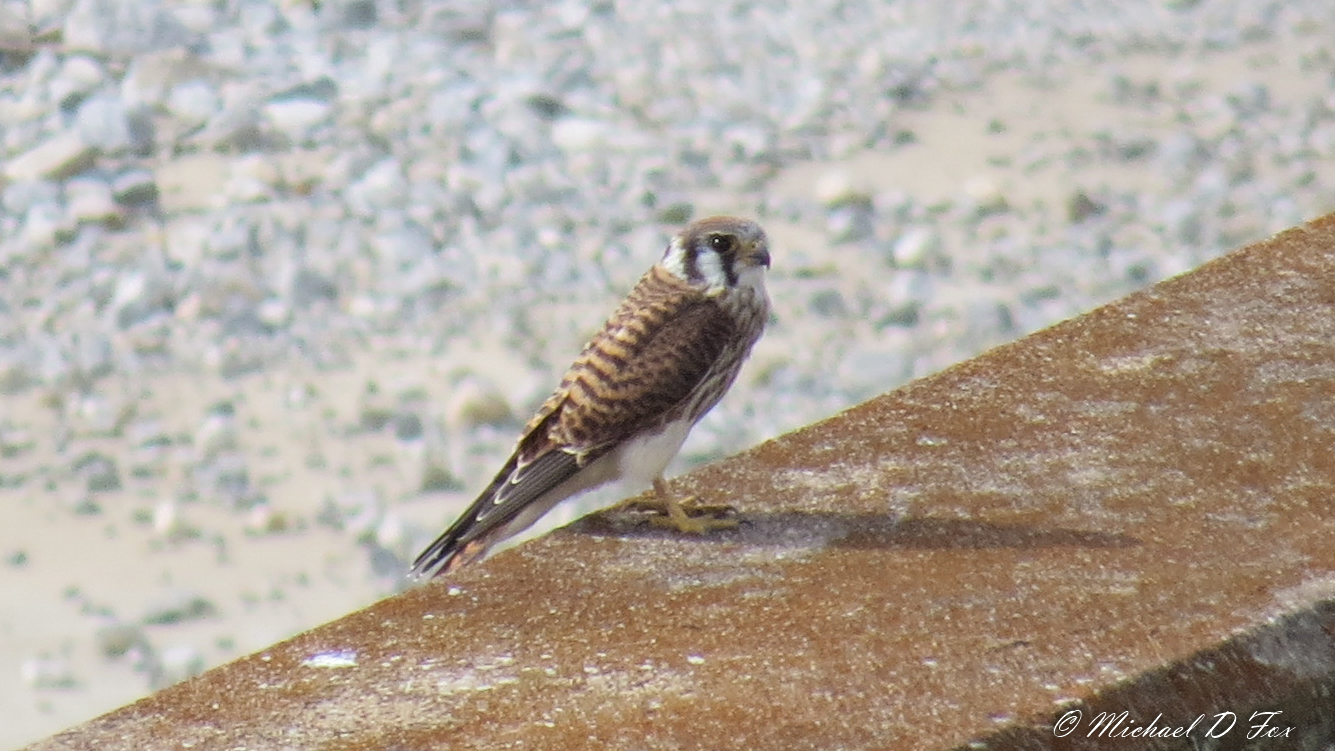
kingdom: Animalia
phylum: Chordata
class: Aves
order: Falconiformes
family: Falconidae
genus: Falco
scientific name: Falco sparverius
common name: American kestrel
